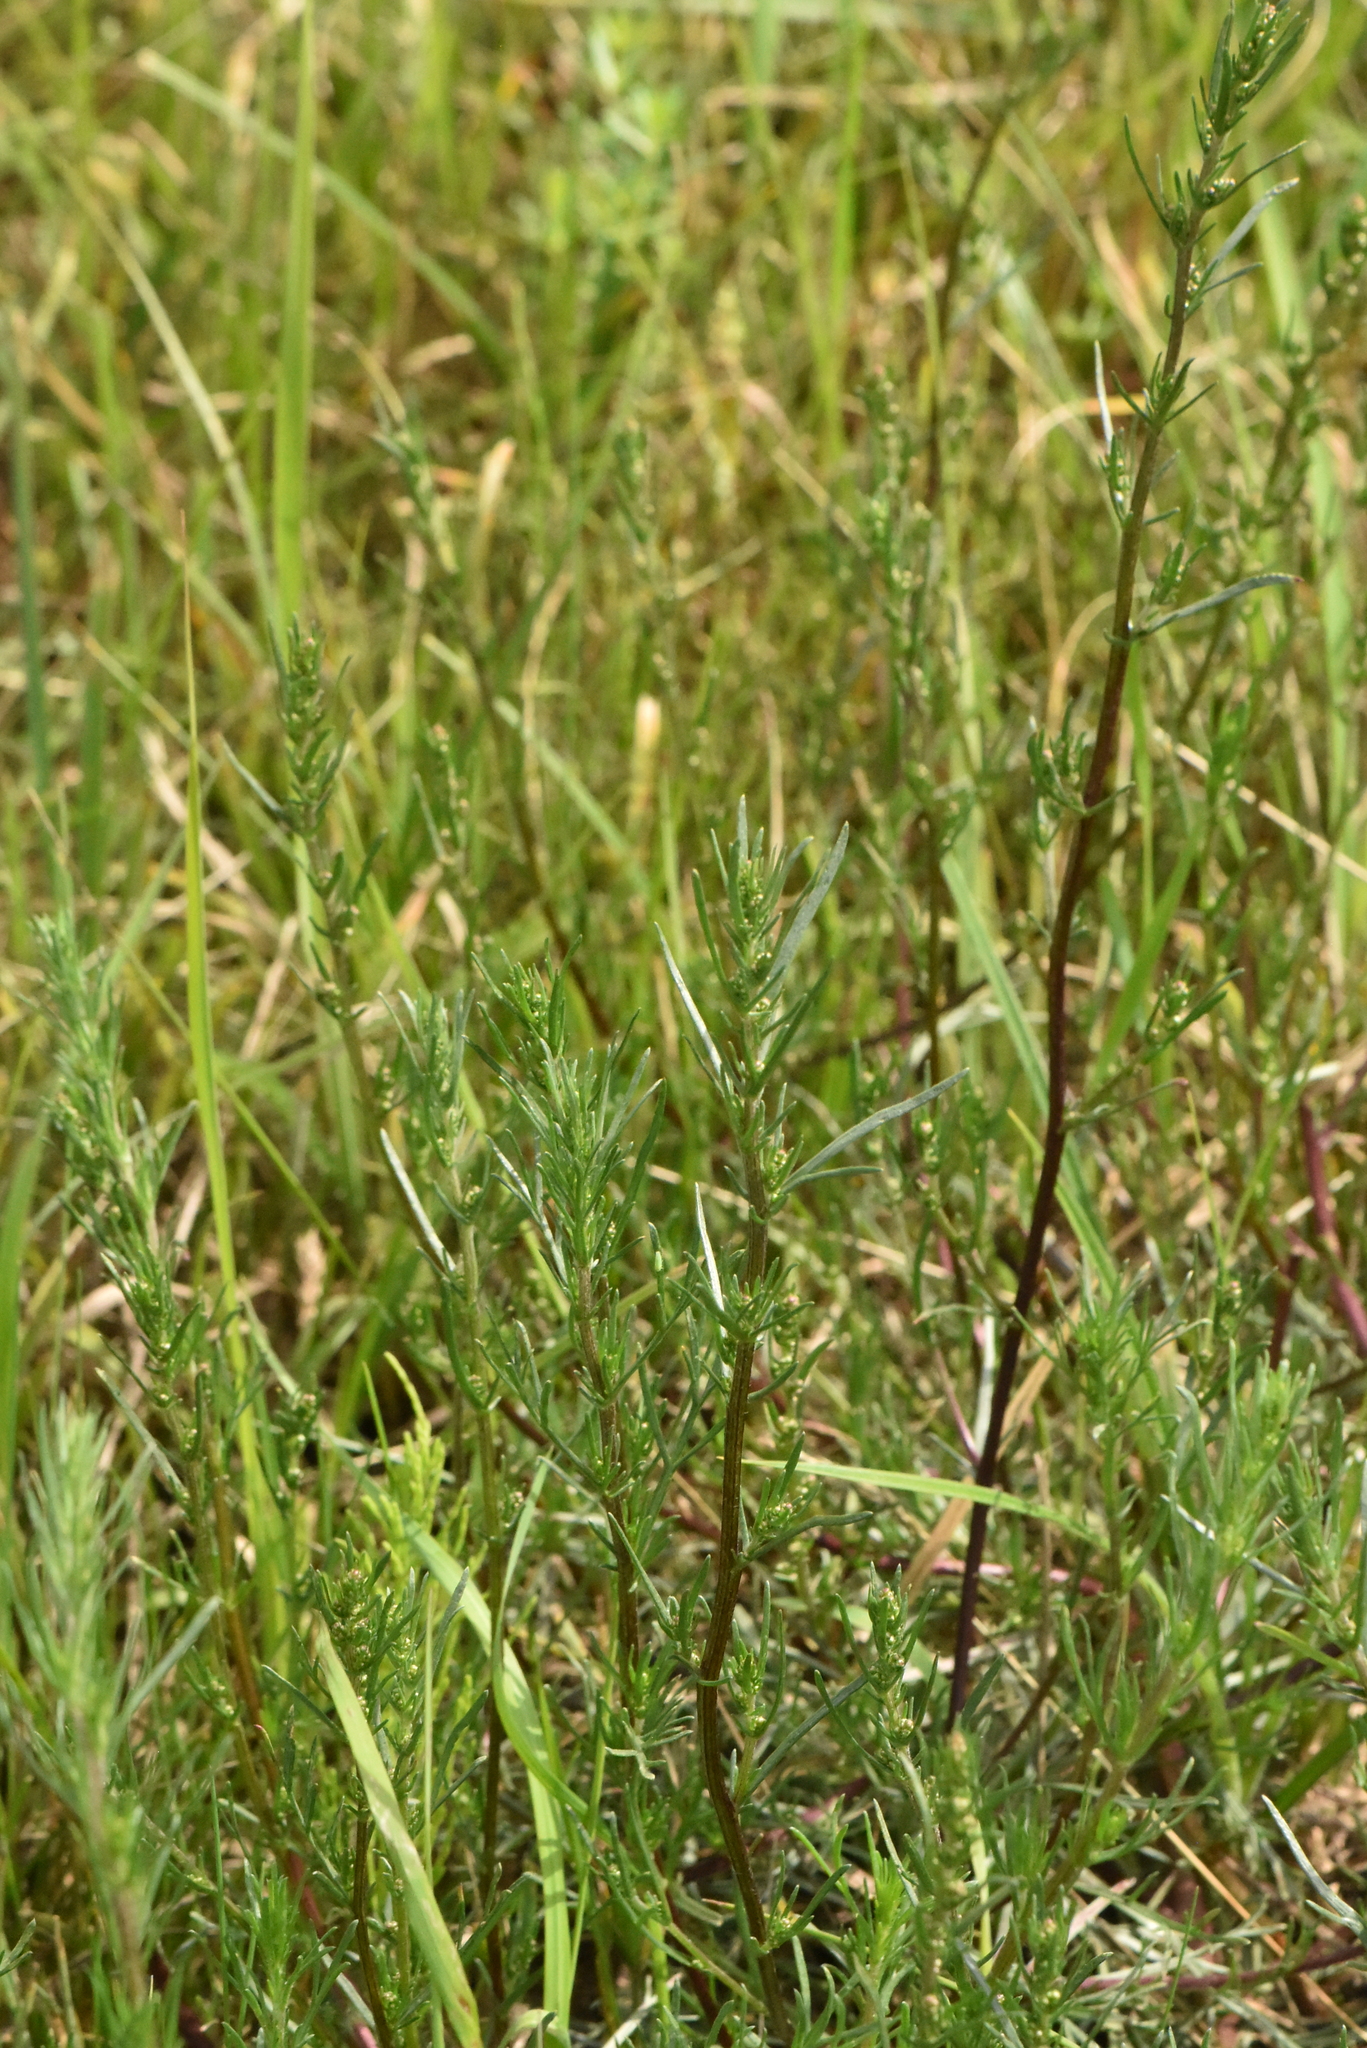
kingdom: Plantae
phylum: Tracheophyta
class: Magnoliopsida
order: Asterales
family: Asteraceae
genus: Artemisia
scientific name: Artemisia campestris
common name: Field wormwood
